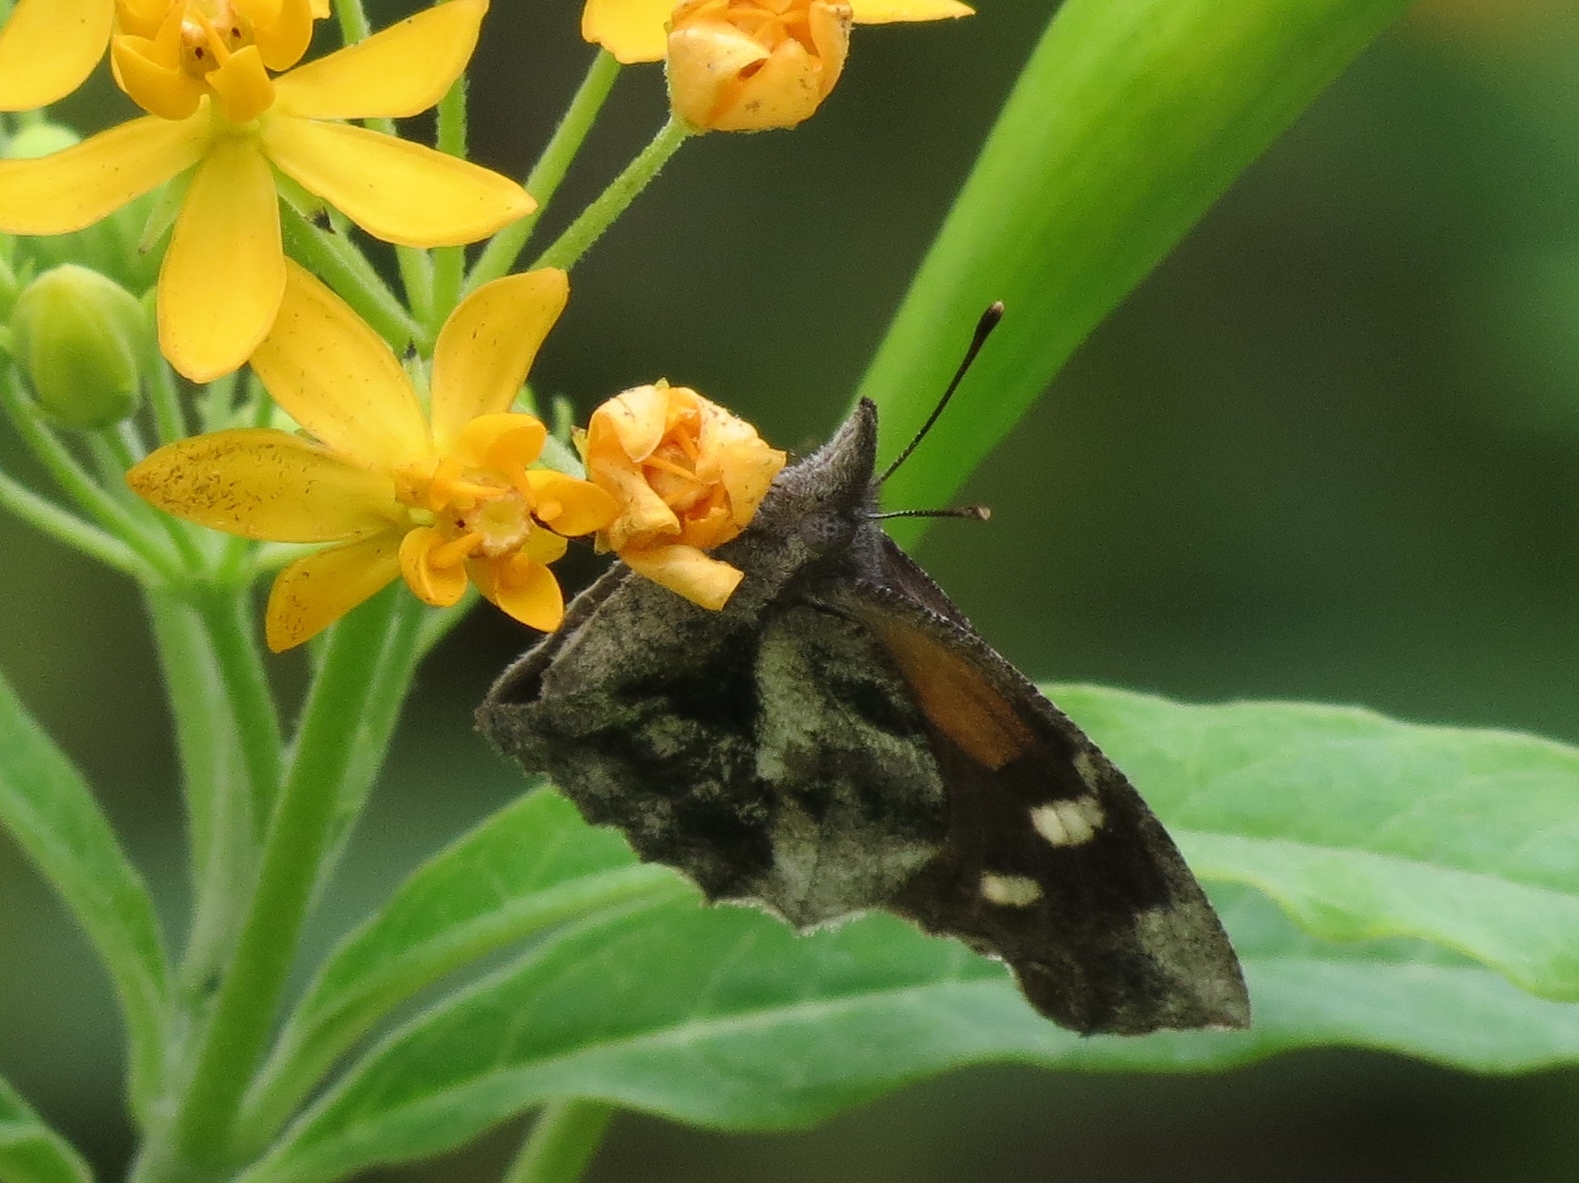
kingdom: Animalia
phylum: Arthropoda
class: Insecta
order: Lepidoptera
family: Nymphalidae
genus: Libytheana
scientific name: Libytheana carinenta
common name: American snout
